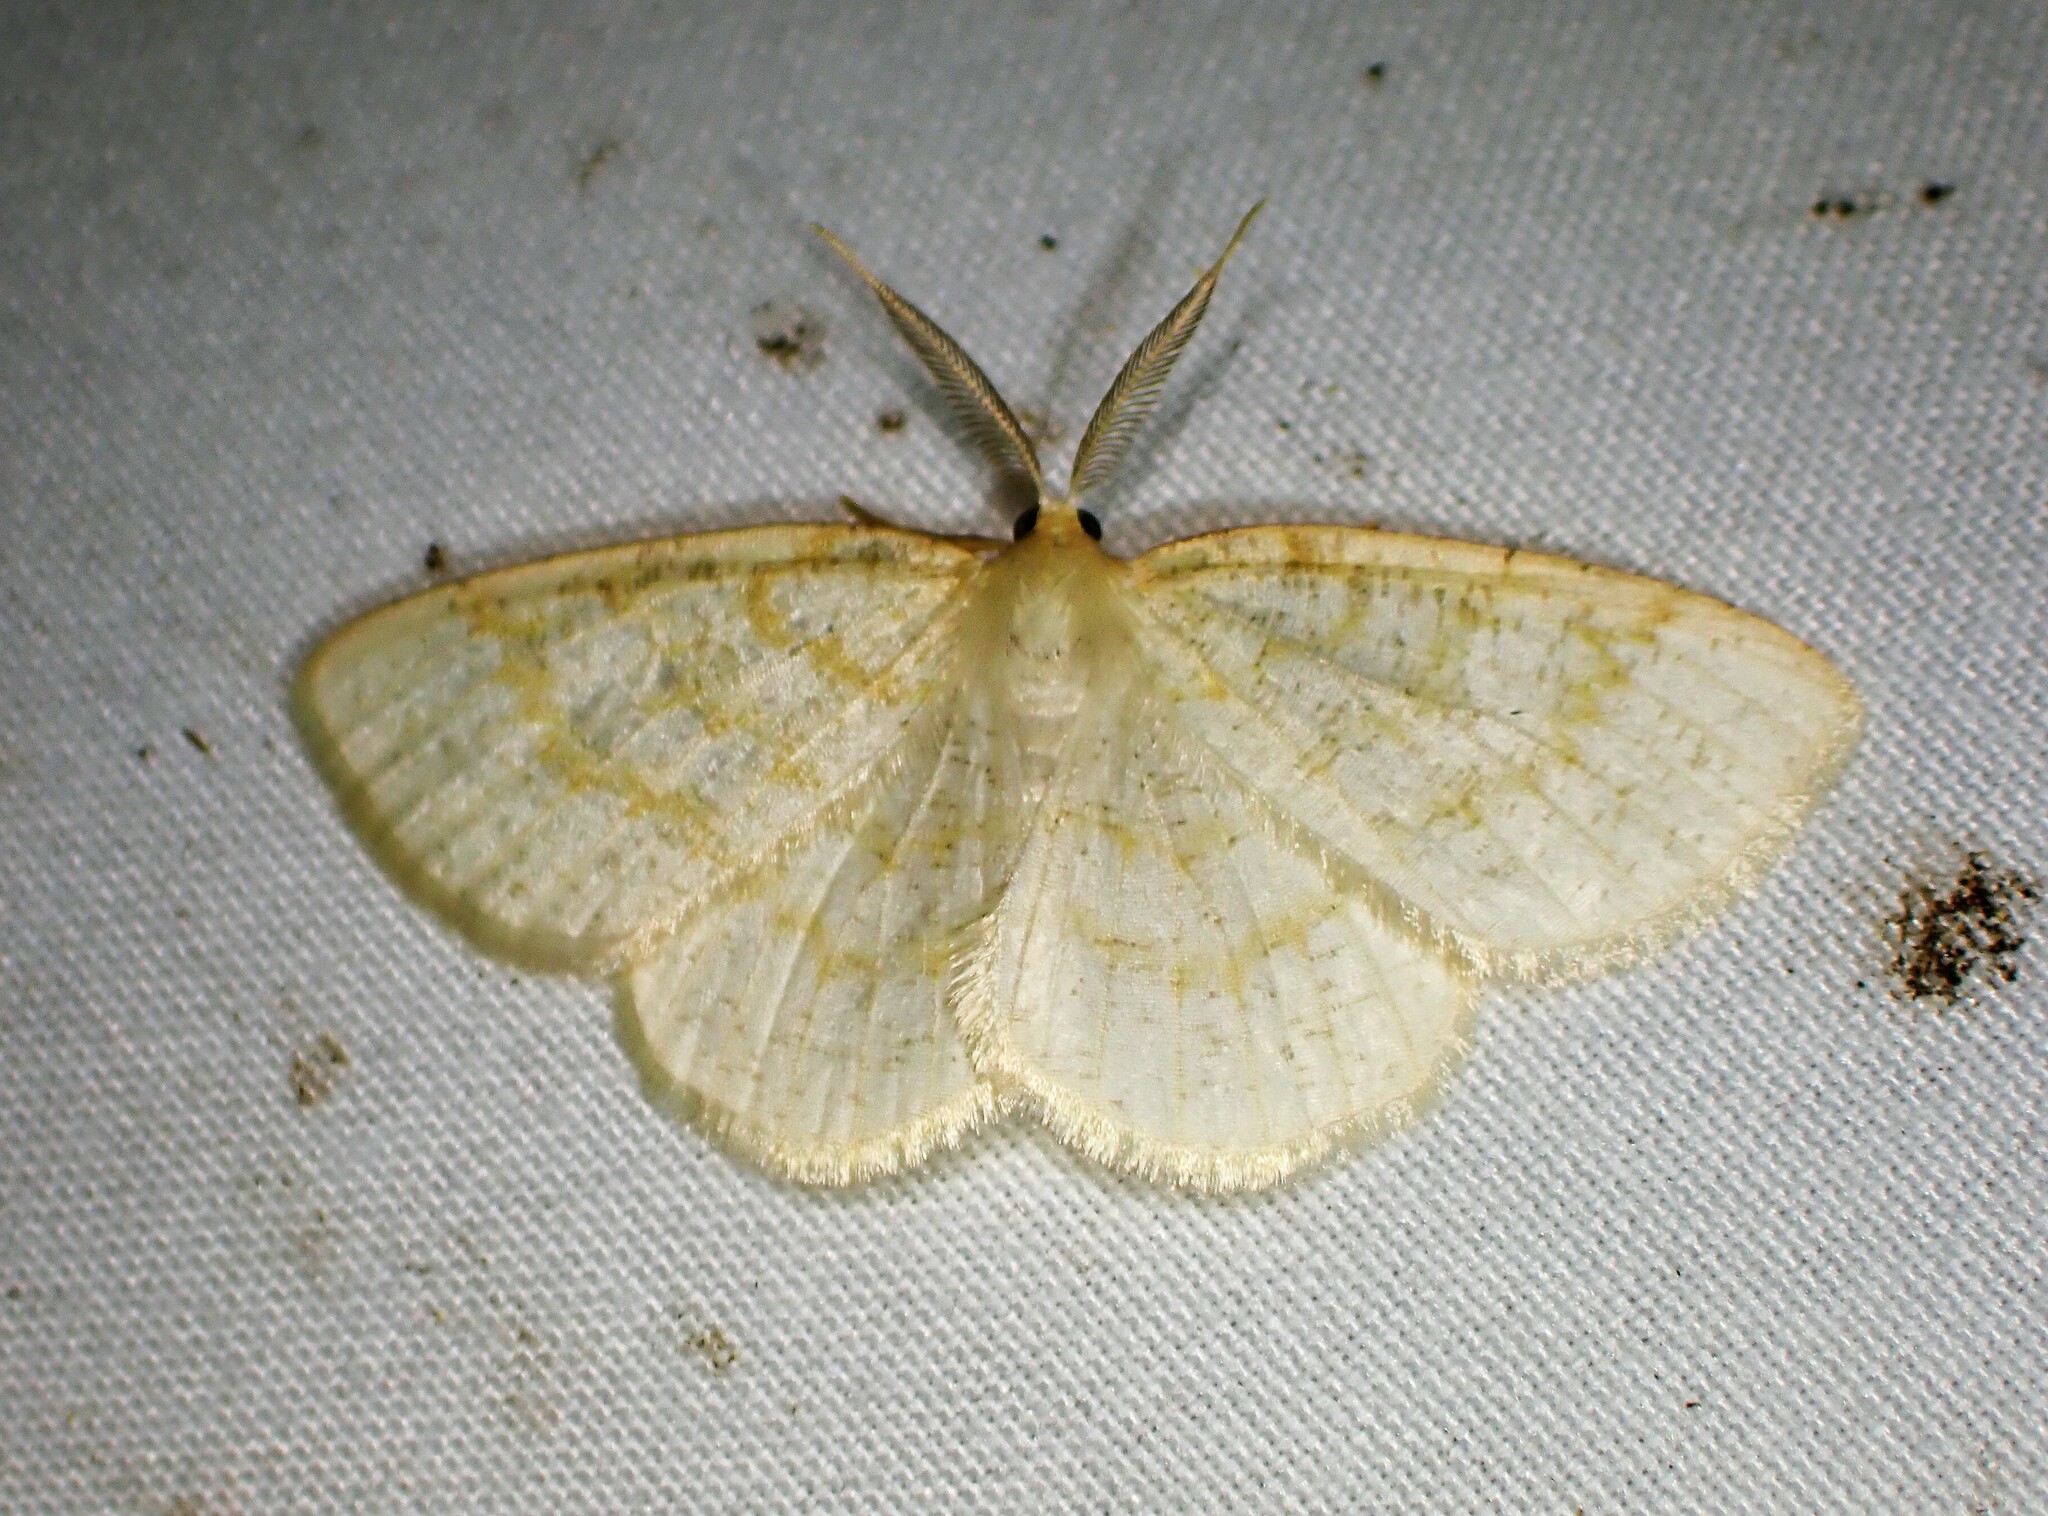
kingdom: Animalia
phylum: Arthropoda
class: Insecta
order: Lepidoptera
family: Geometridae
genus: Cabera
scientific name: Cabera erythemaria
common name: Yellow-dusted cream moth
